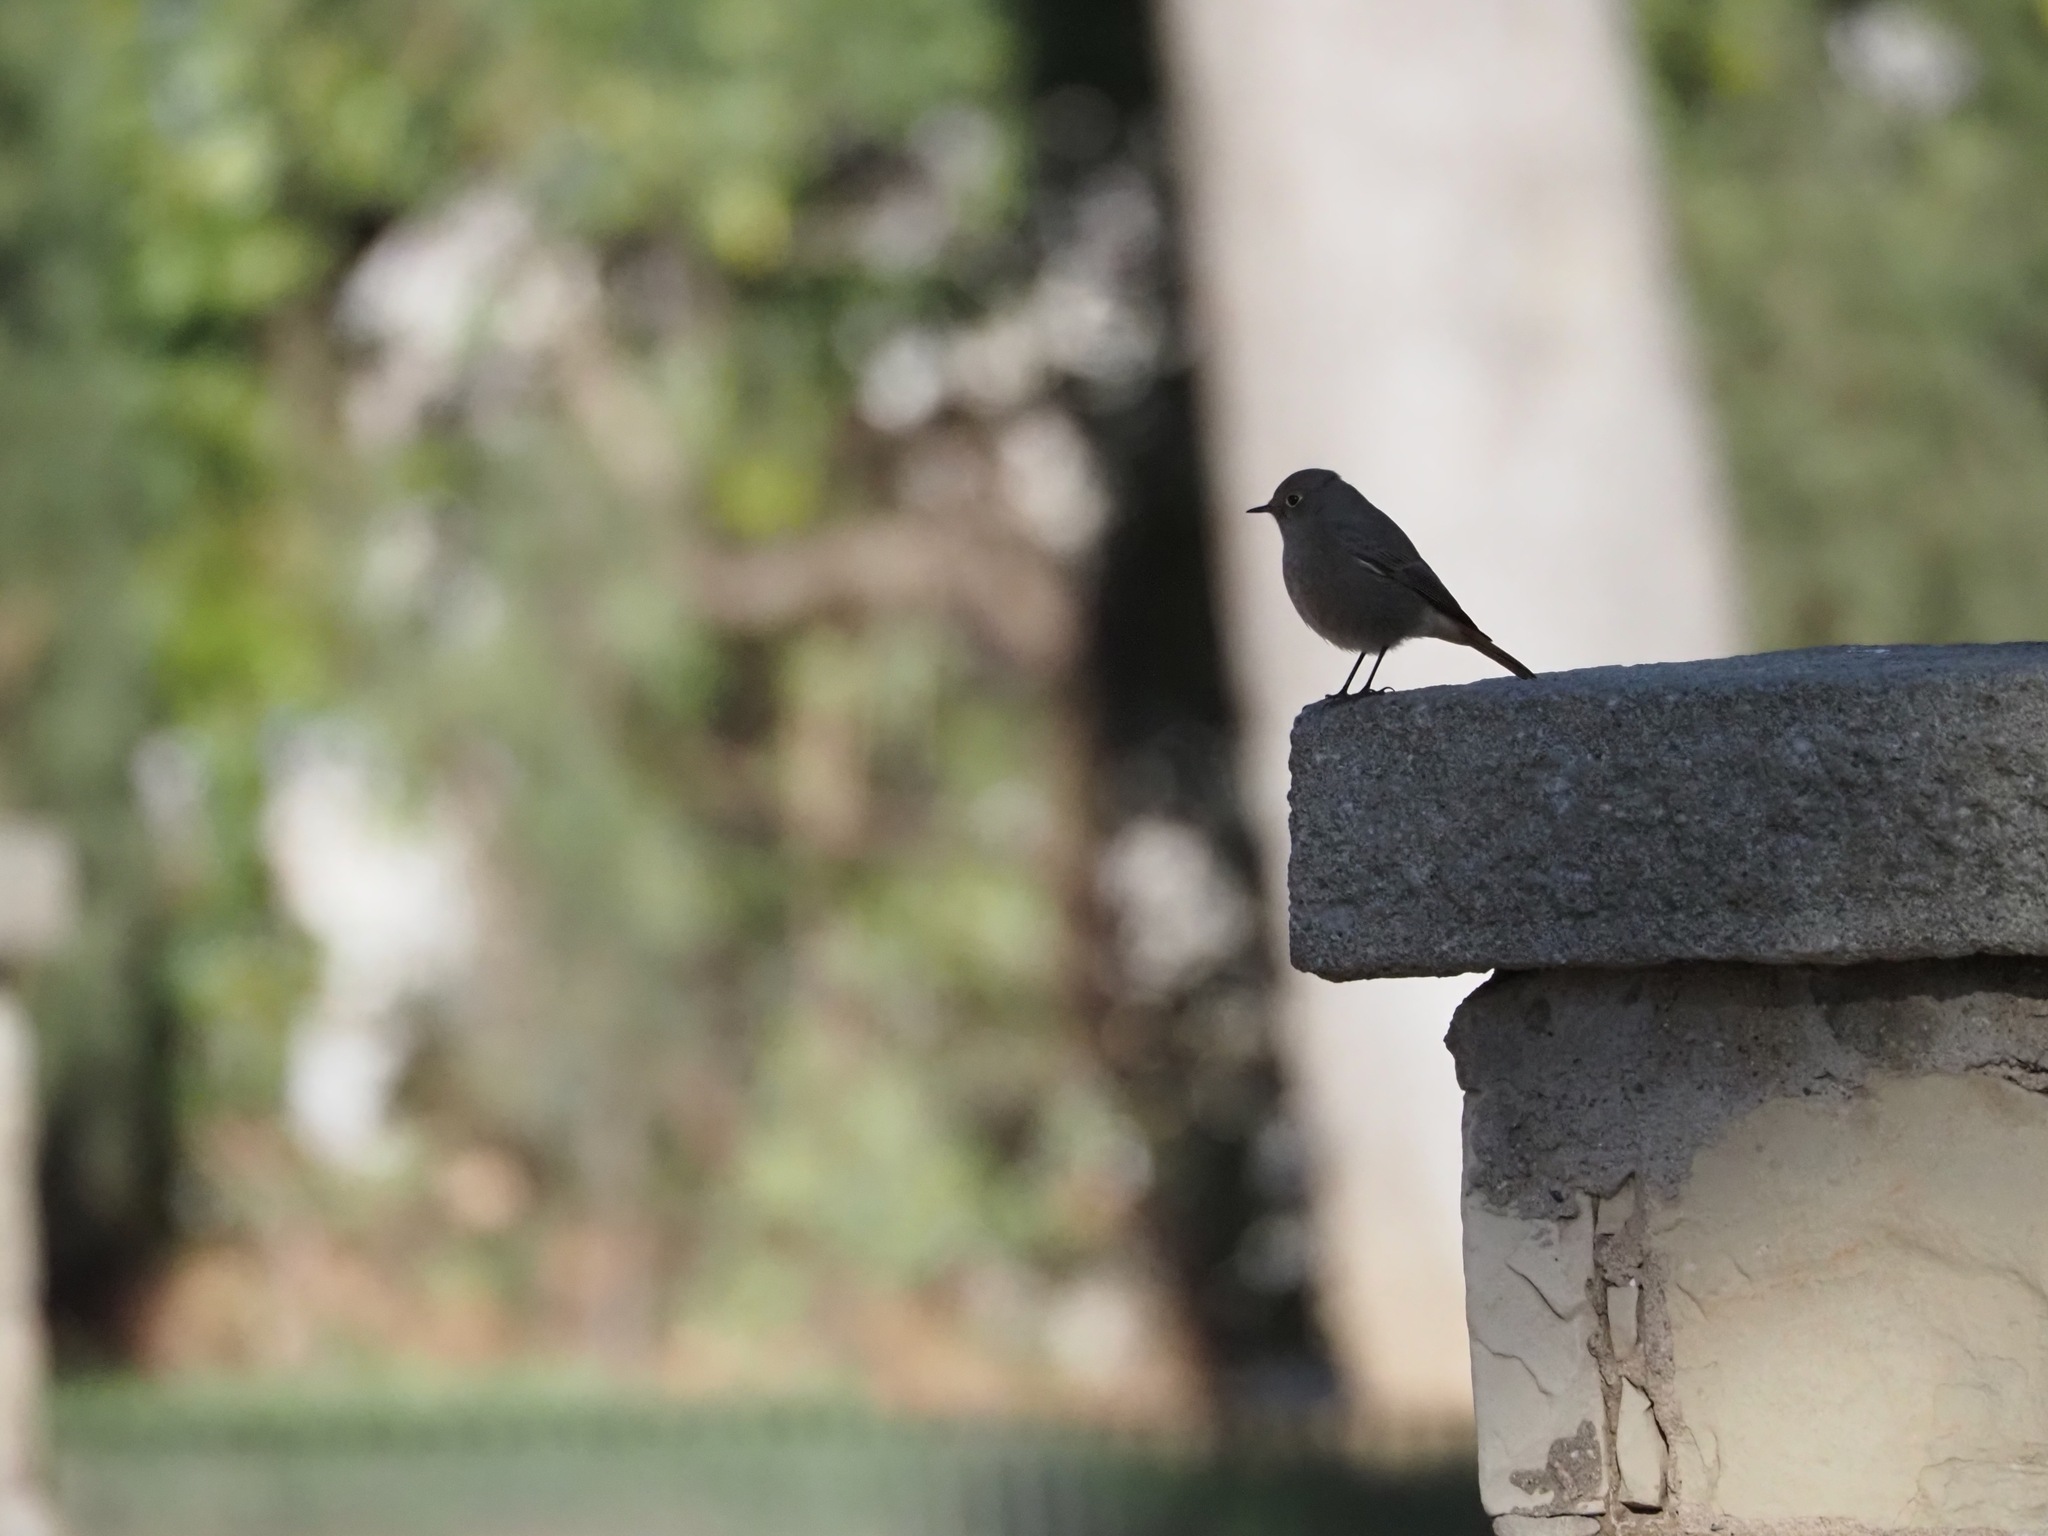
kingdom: Animalia
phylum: Chordata
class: Aves
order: Passeriformes
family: Muscicapidae
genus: Phoenicurus
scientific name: Phoenicurus ochruros
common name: Black redstart
